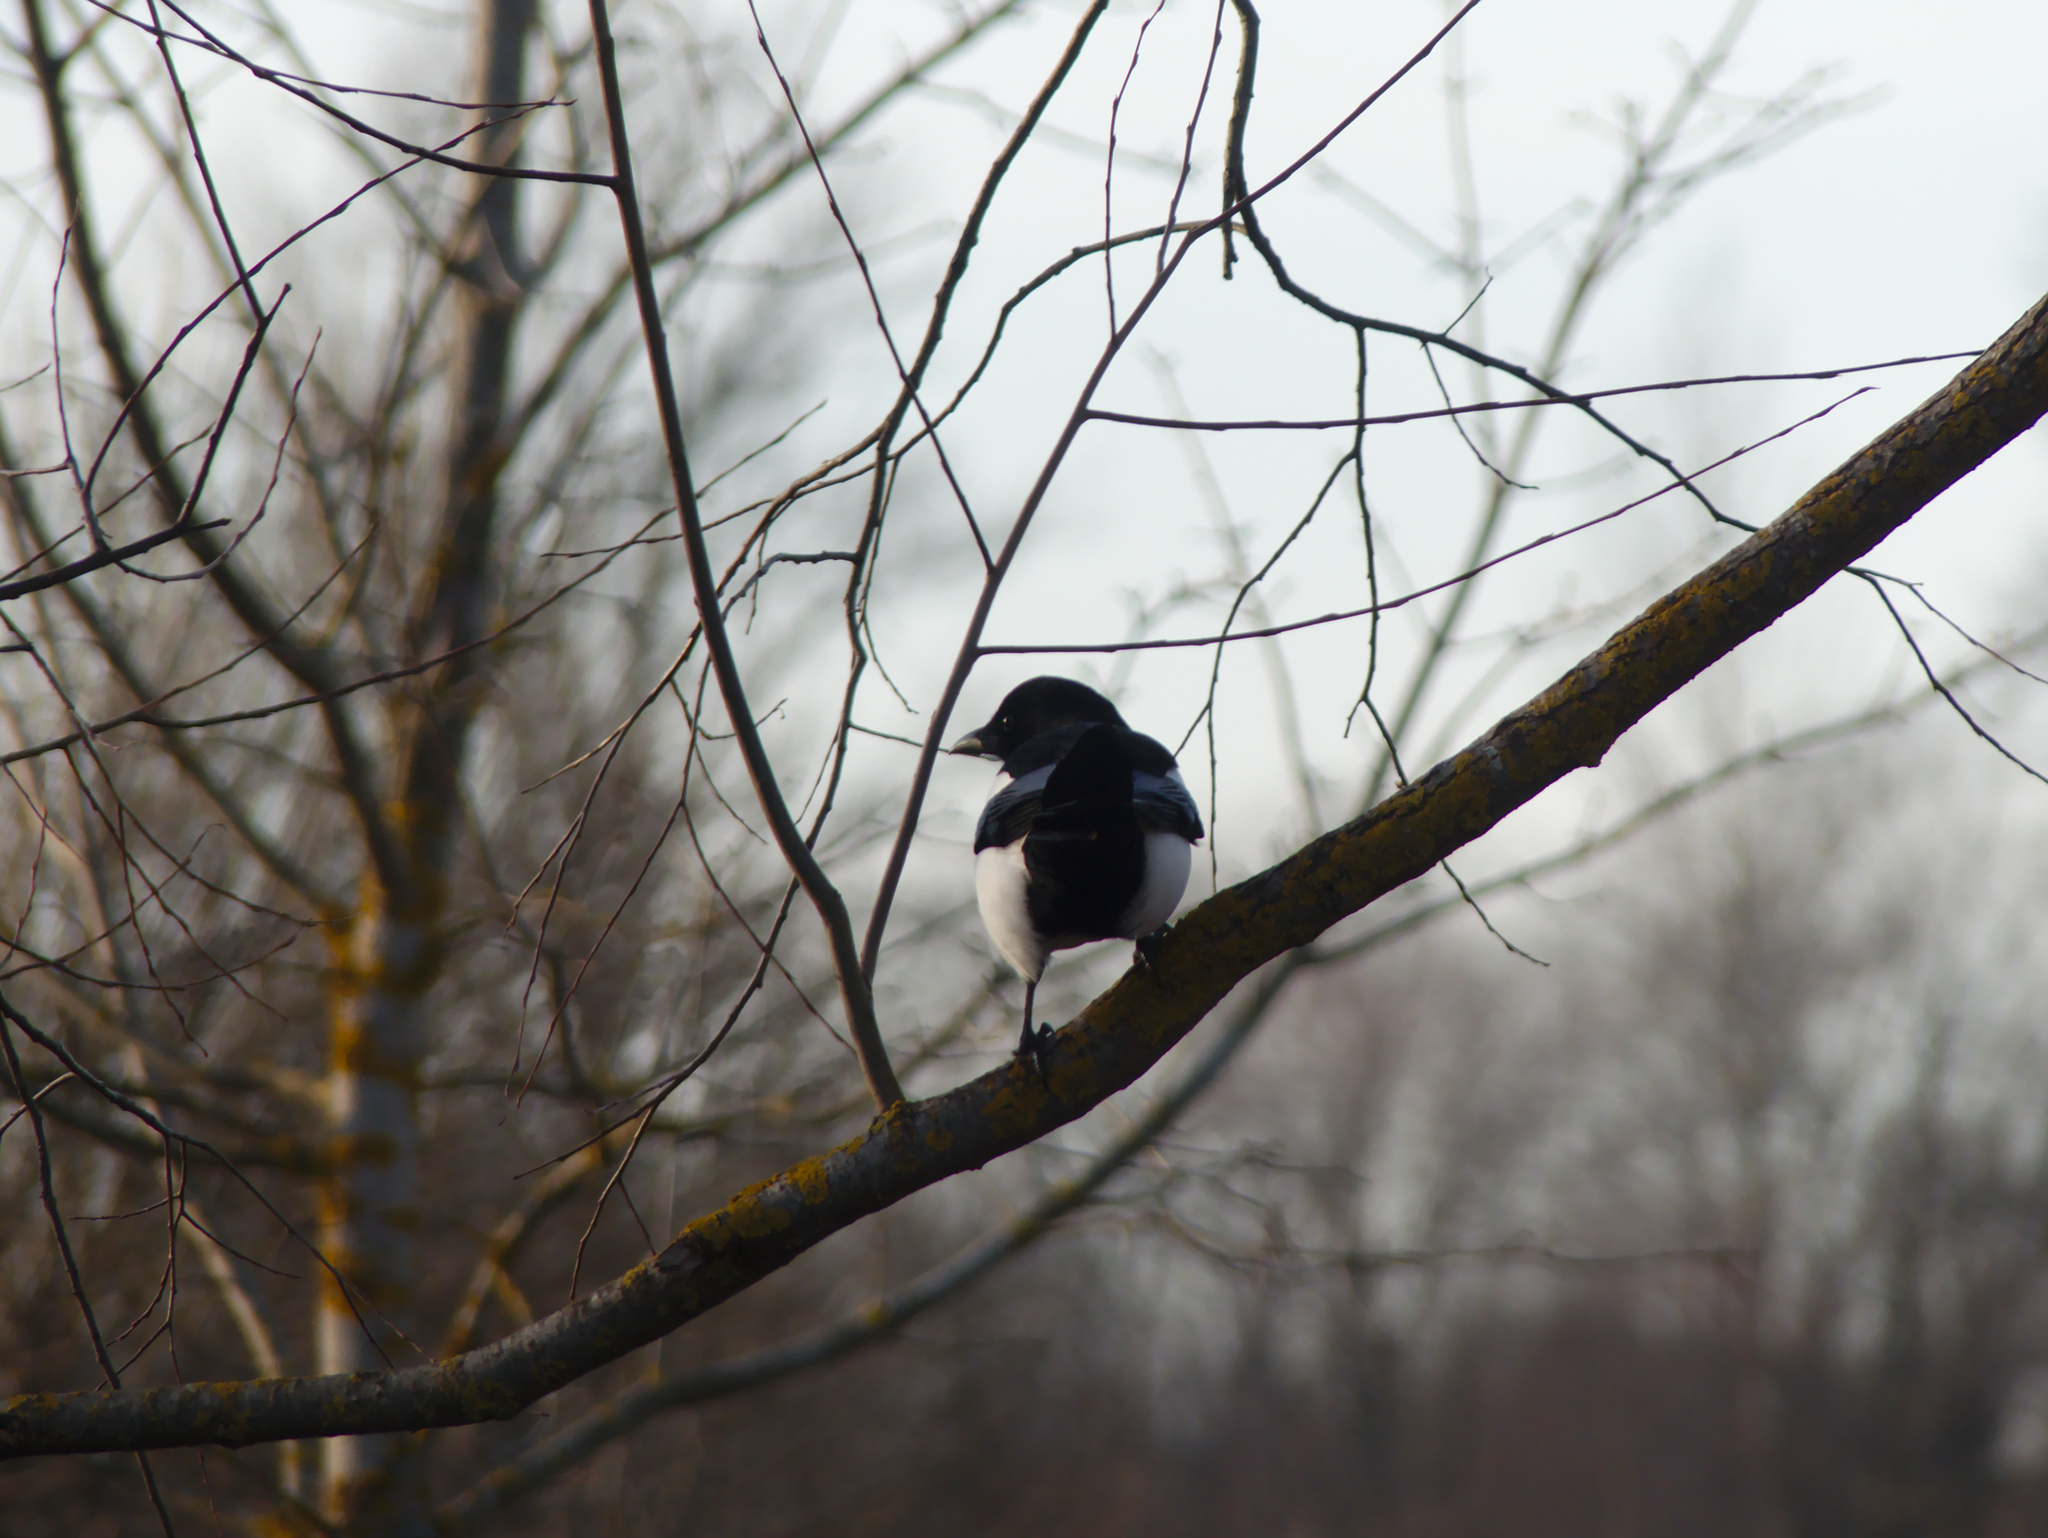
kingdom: Animalia
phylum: Chordata
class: Aves
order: Passeriformes
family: Corvidae
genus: Pica
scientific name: Pica pica
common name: Eurasian magpie
